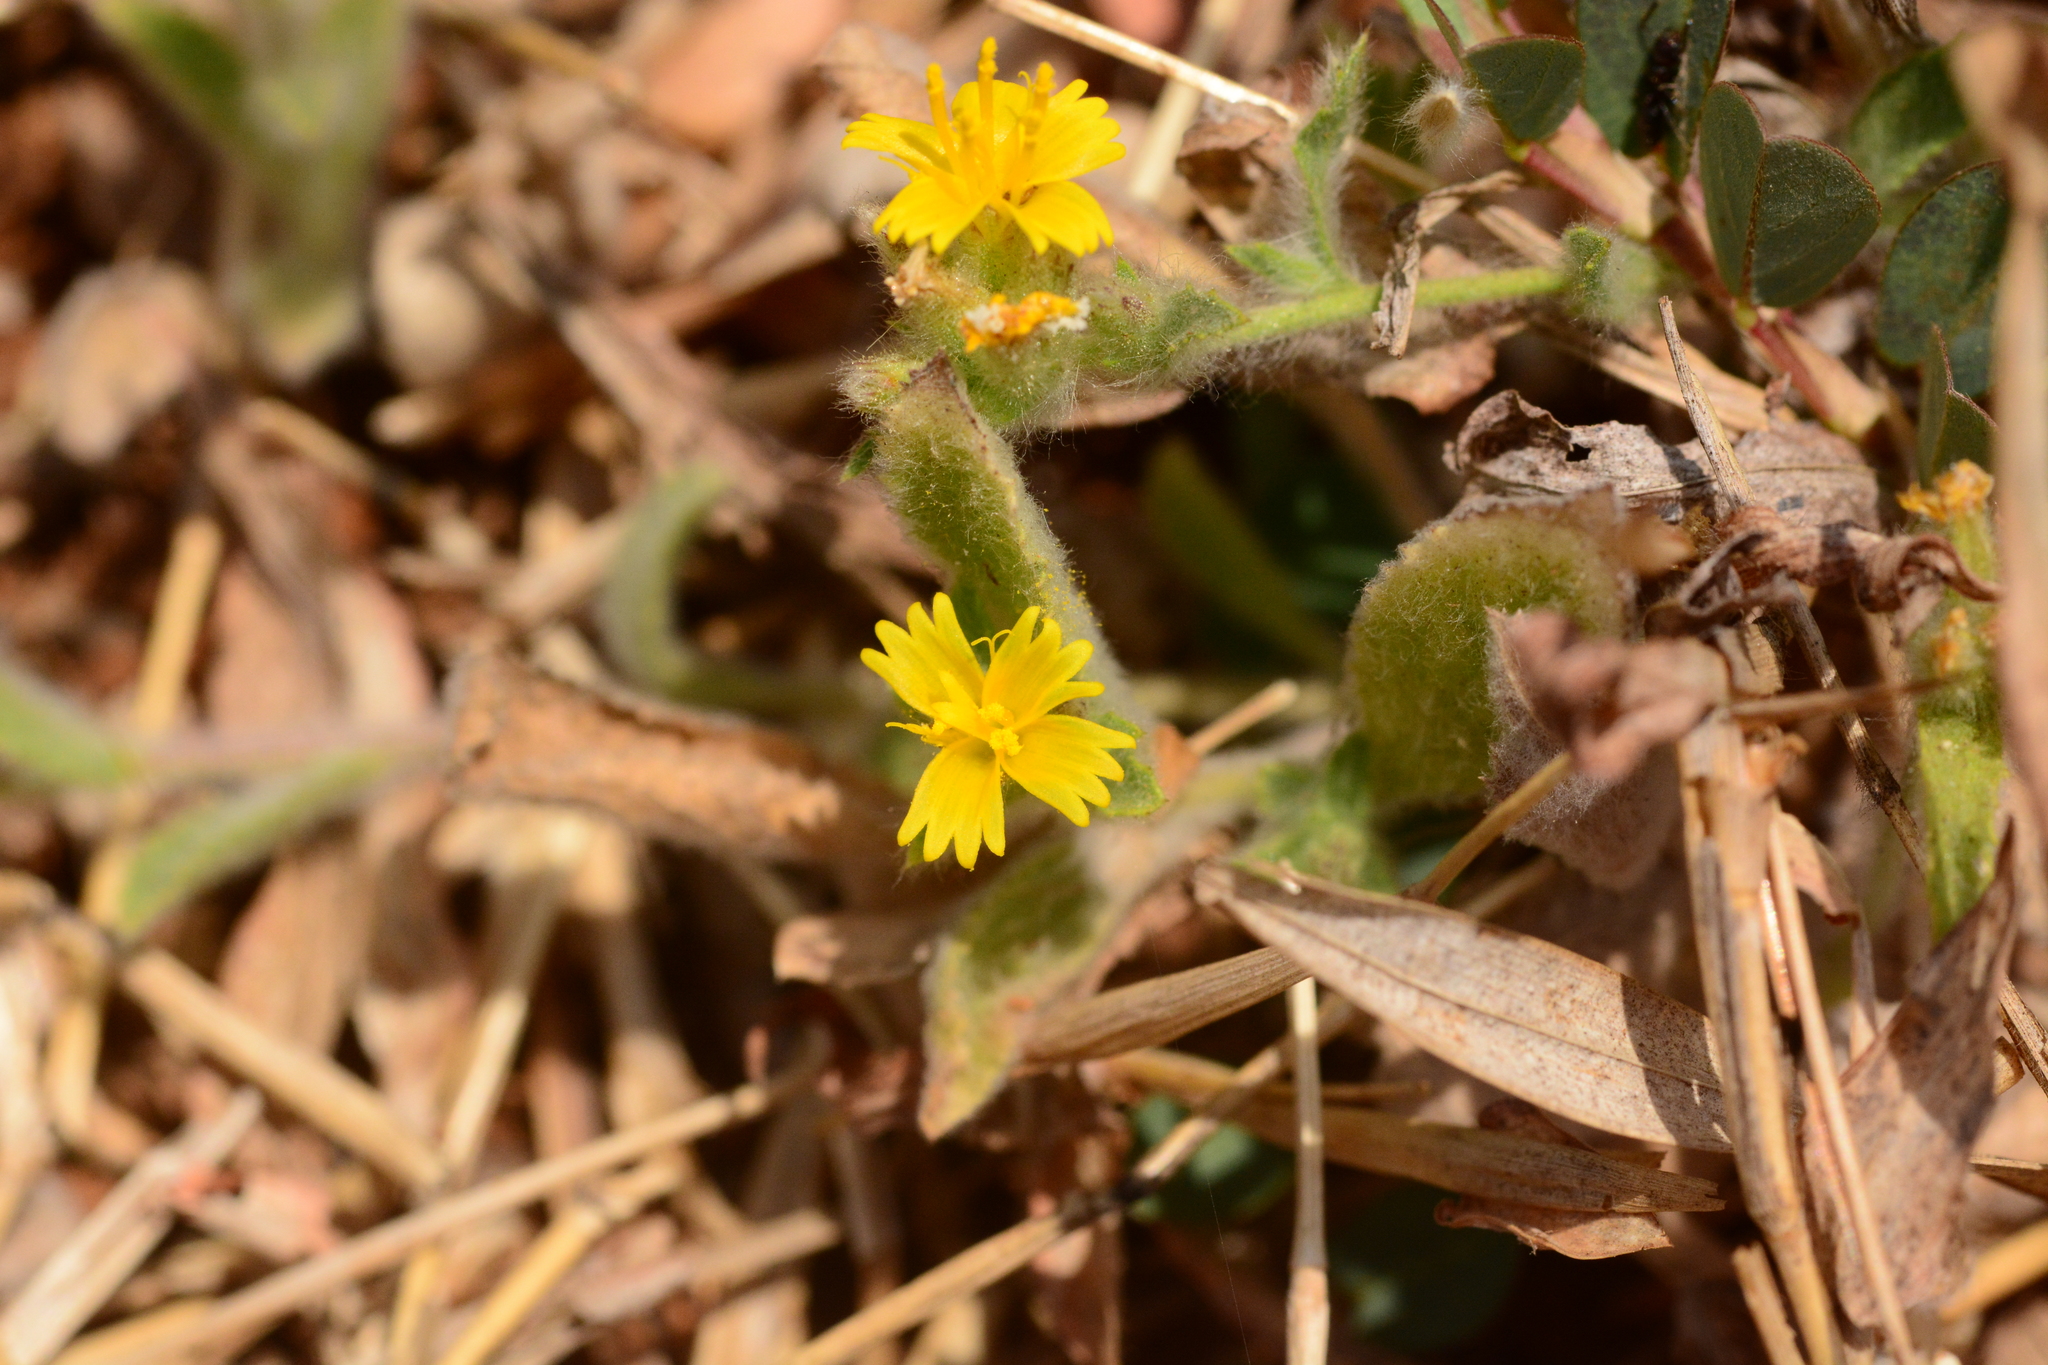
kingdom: Plantae
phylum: Tracheophyta
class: Magnoliopsida
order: Asterales
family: Asteraceae
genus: Nanothamnus
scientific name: Nanothamnus sericeus
